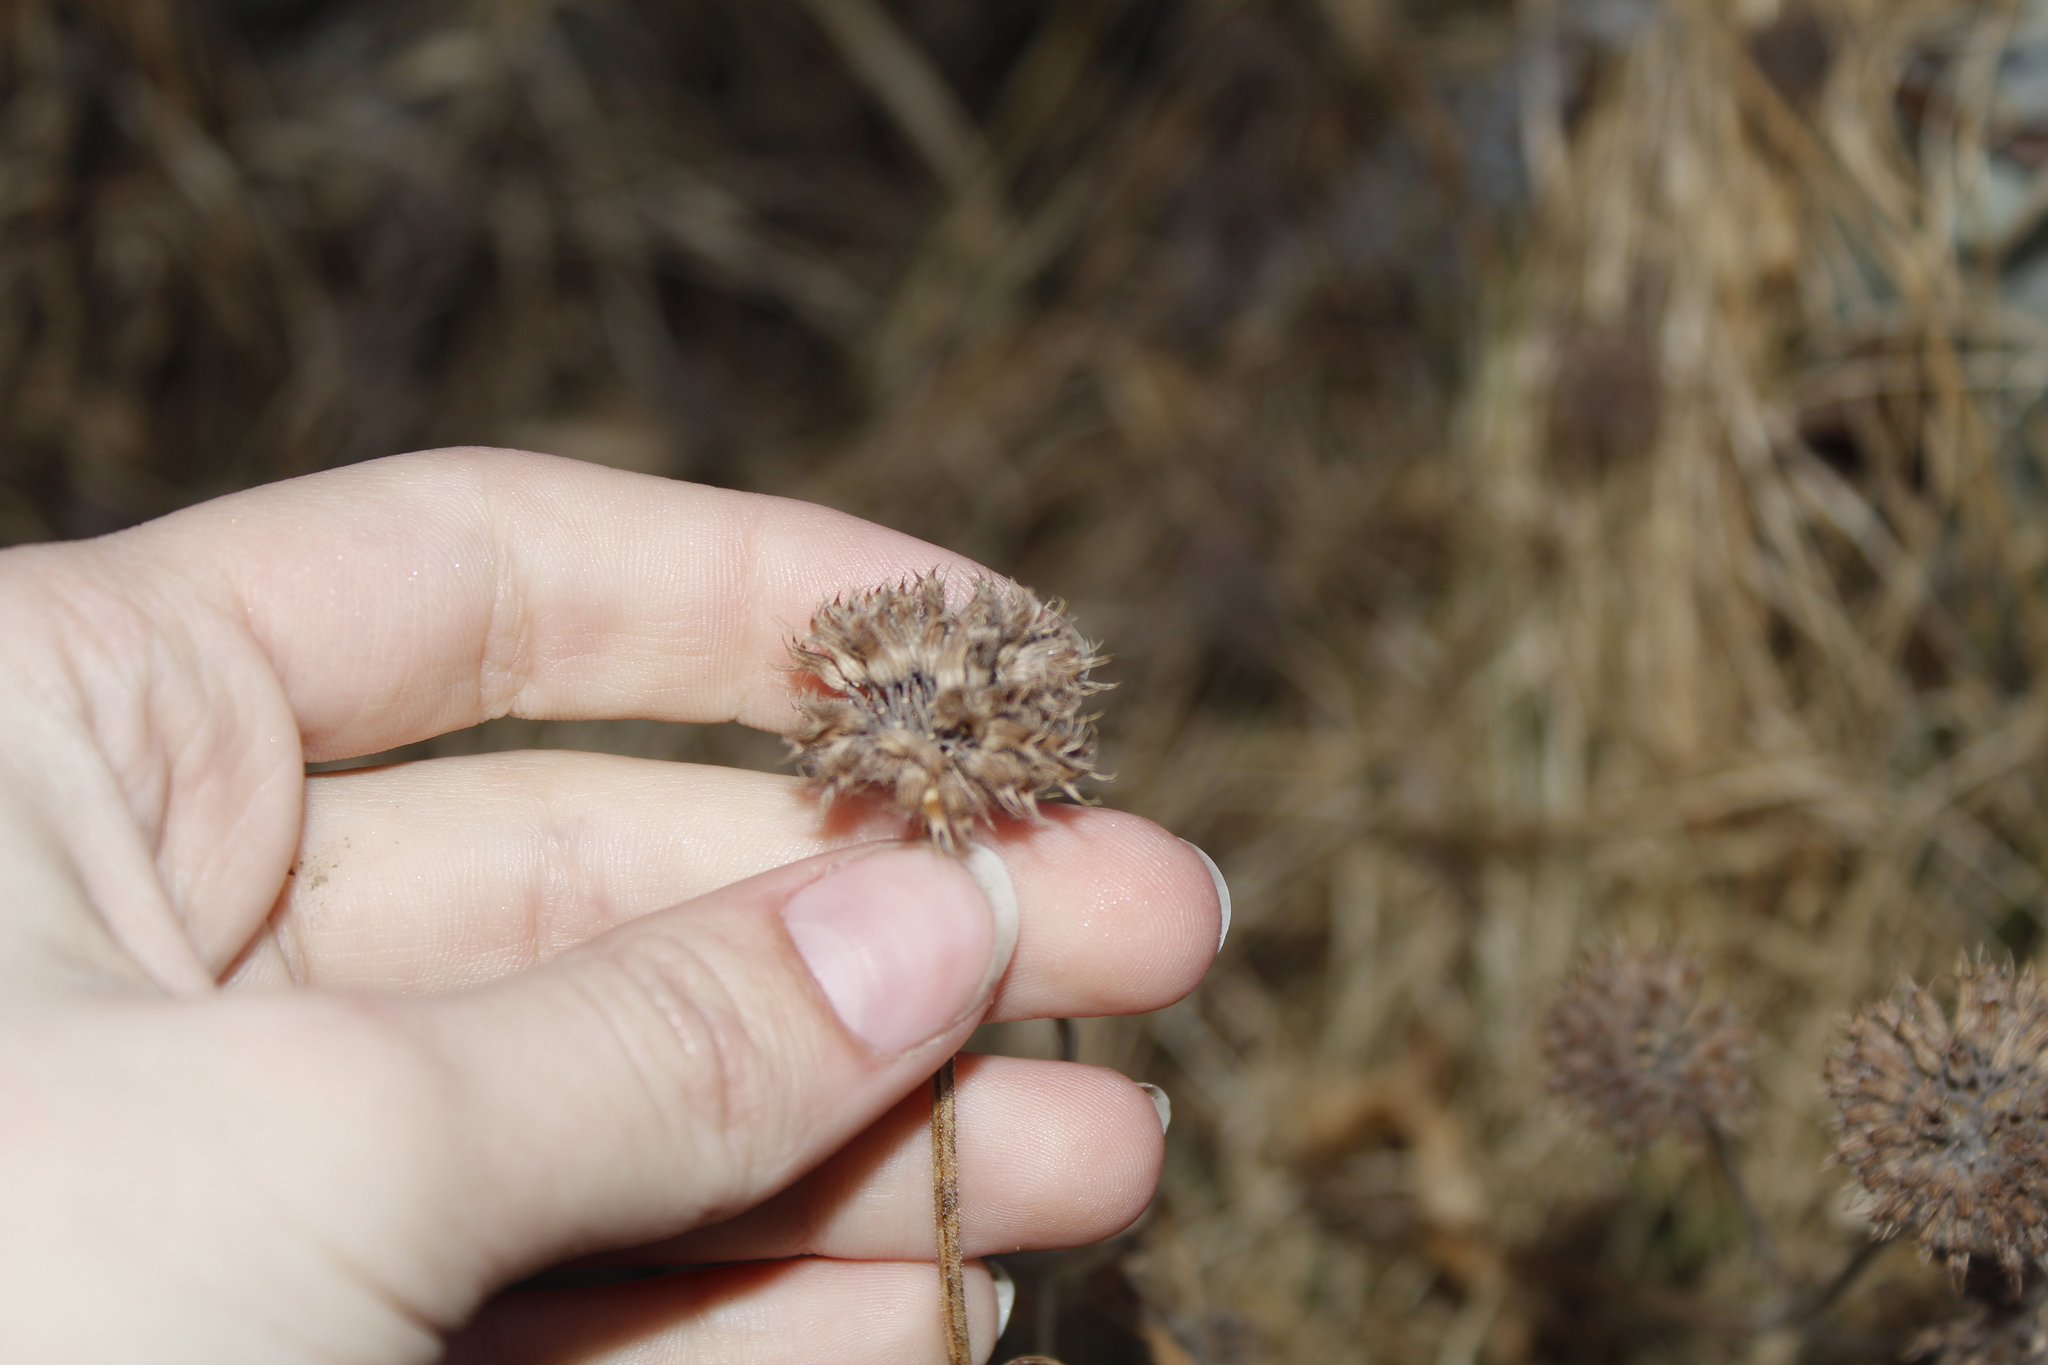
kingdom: Plantae
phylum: Tracheophyta
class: Magnoliopsida
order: Lamiales
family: Lamiaceae
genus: Clinopodium
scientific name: Clinopodium vulgare
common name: Wild basil
